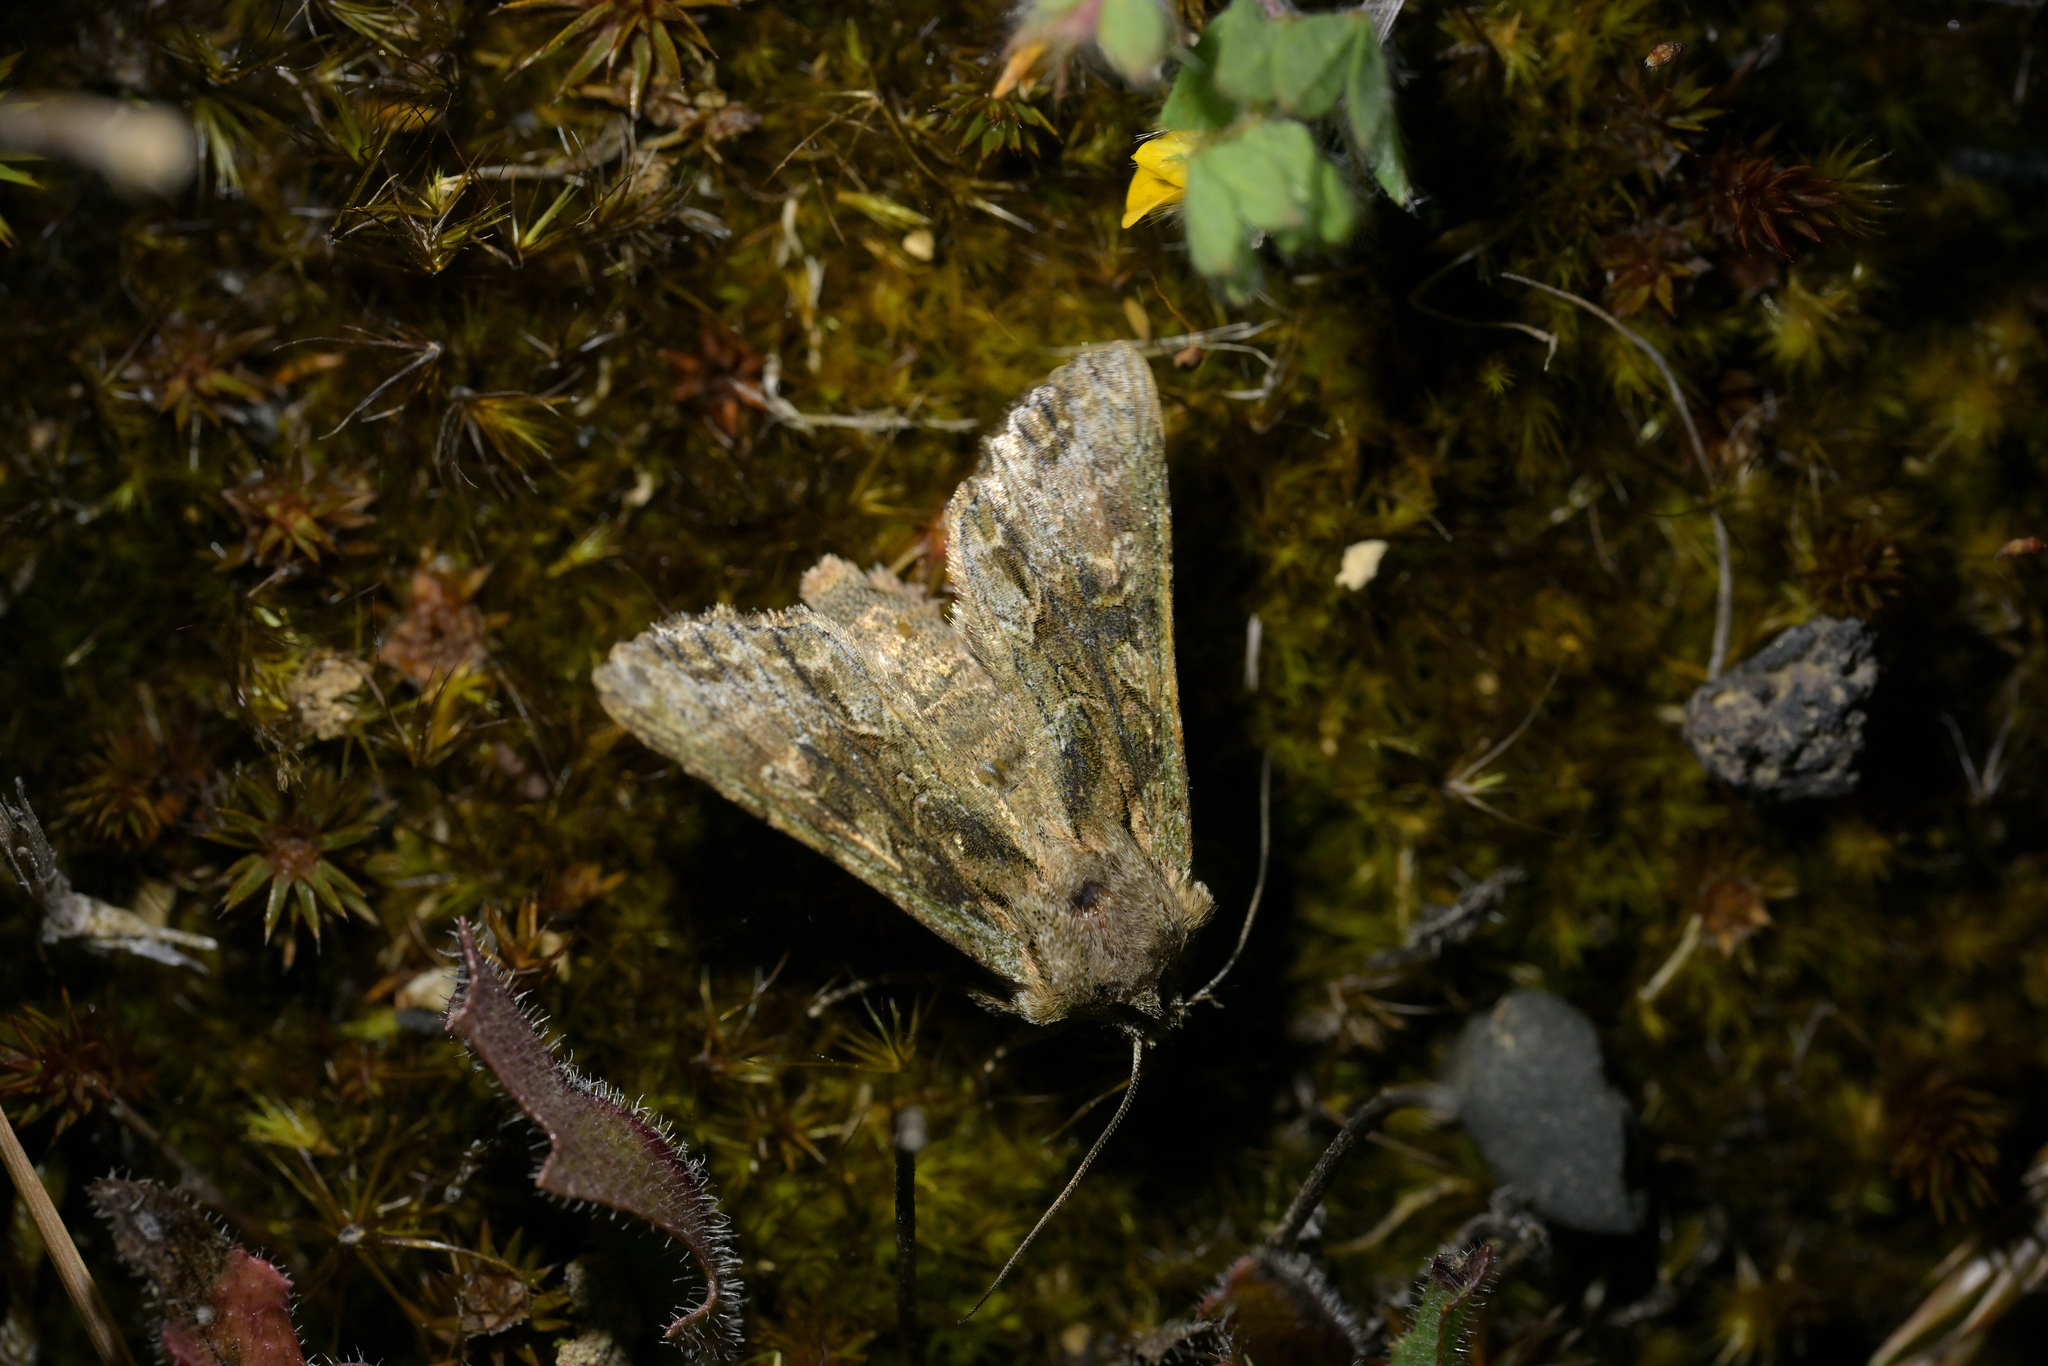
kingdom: Animalia
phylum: Arthropoda
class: Insecta
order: Lepidoptera
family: Noctuidae
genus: Ichneutica
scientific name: Ichneutica mutans
